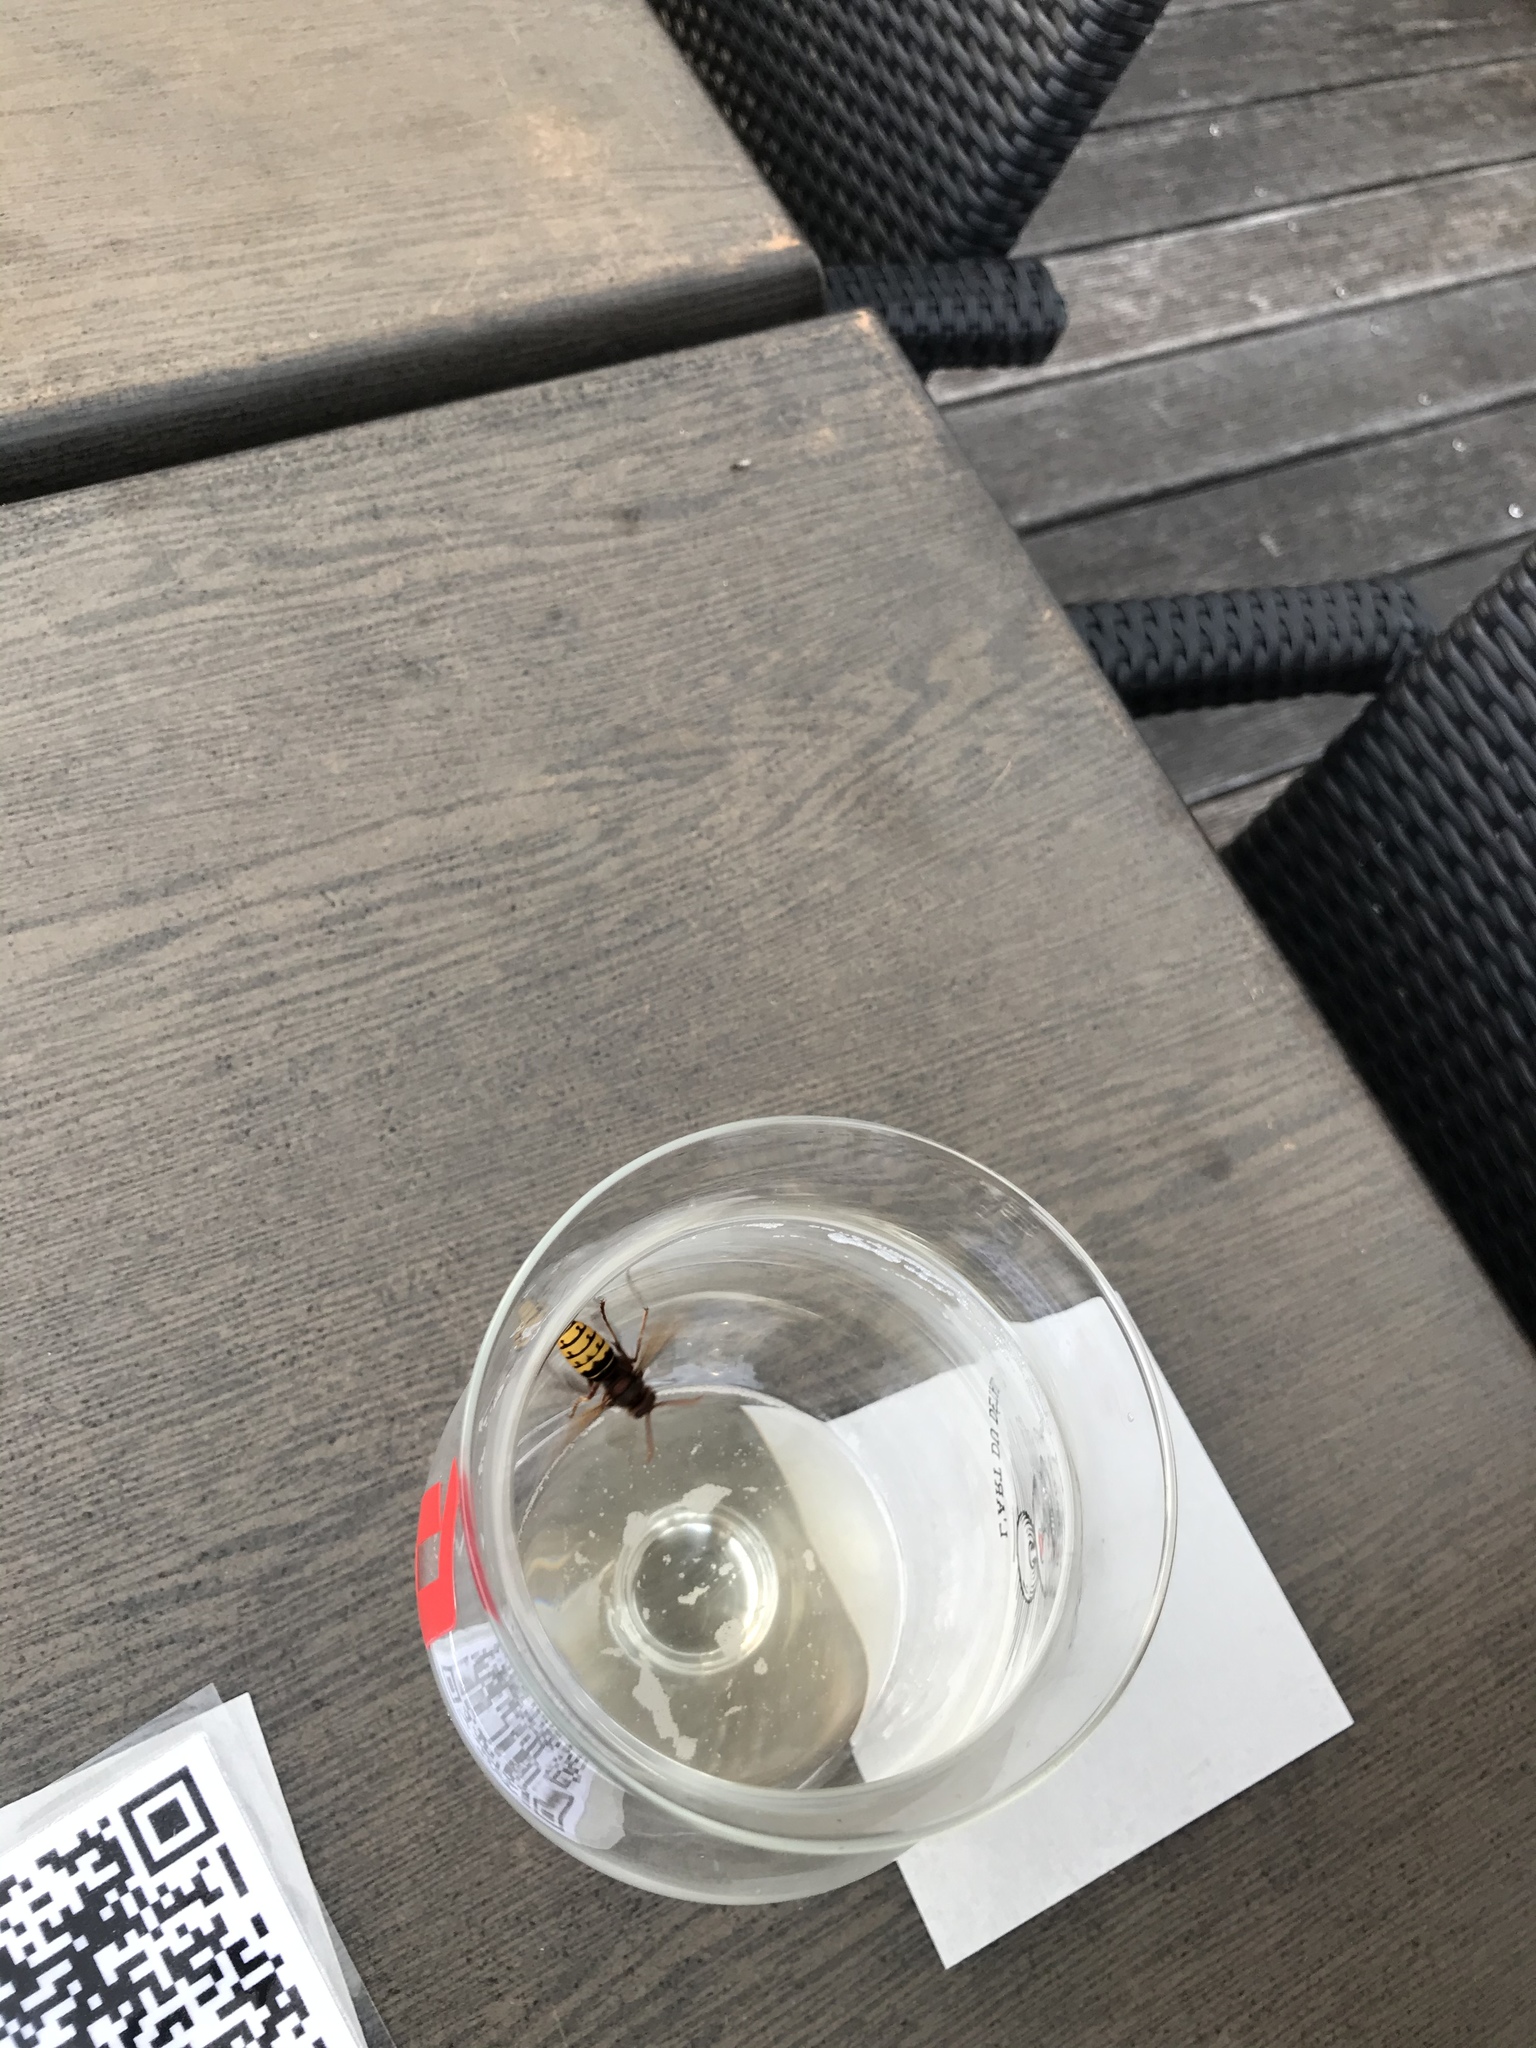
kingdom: Animalia
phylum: Arthropoda
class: Insecta
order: Hymenoptera
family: Vespidae
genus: Vespa
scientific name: Vespa crabro
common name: Hornet
